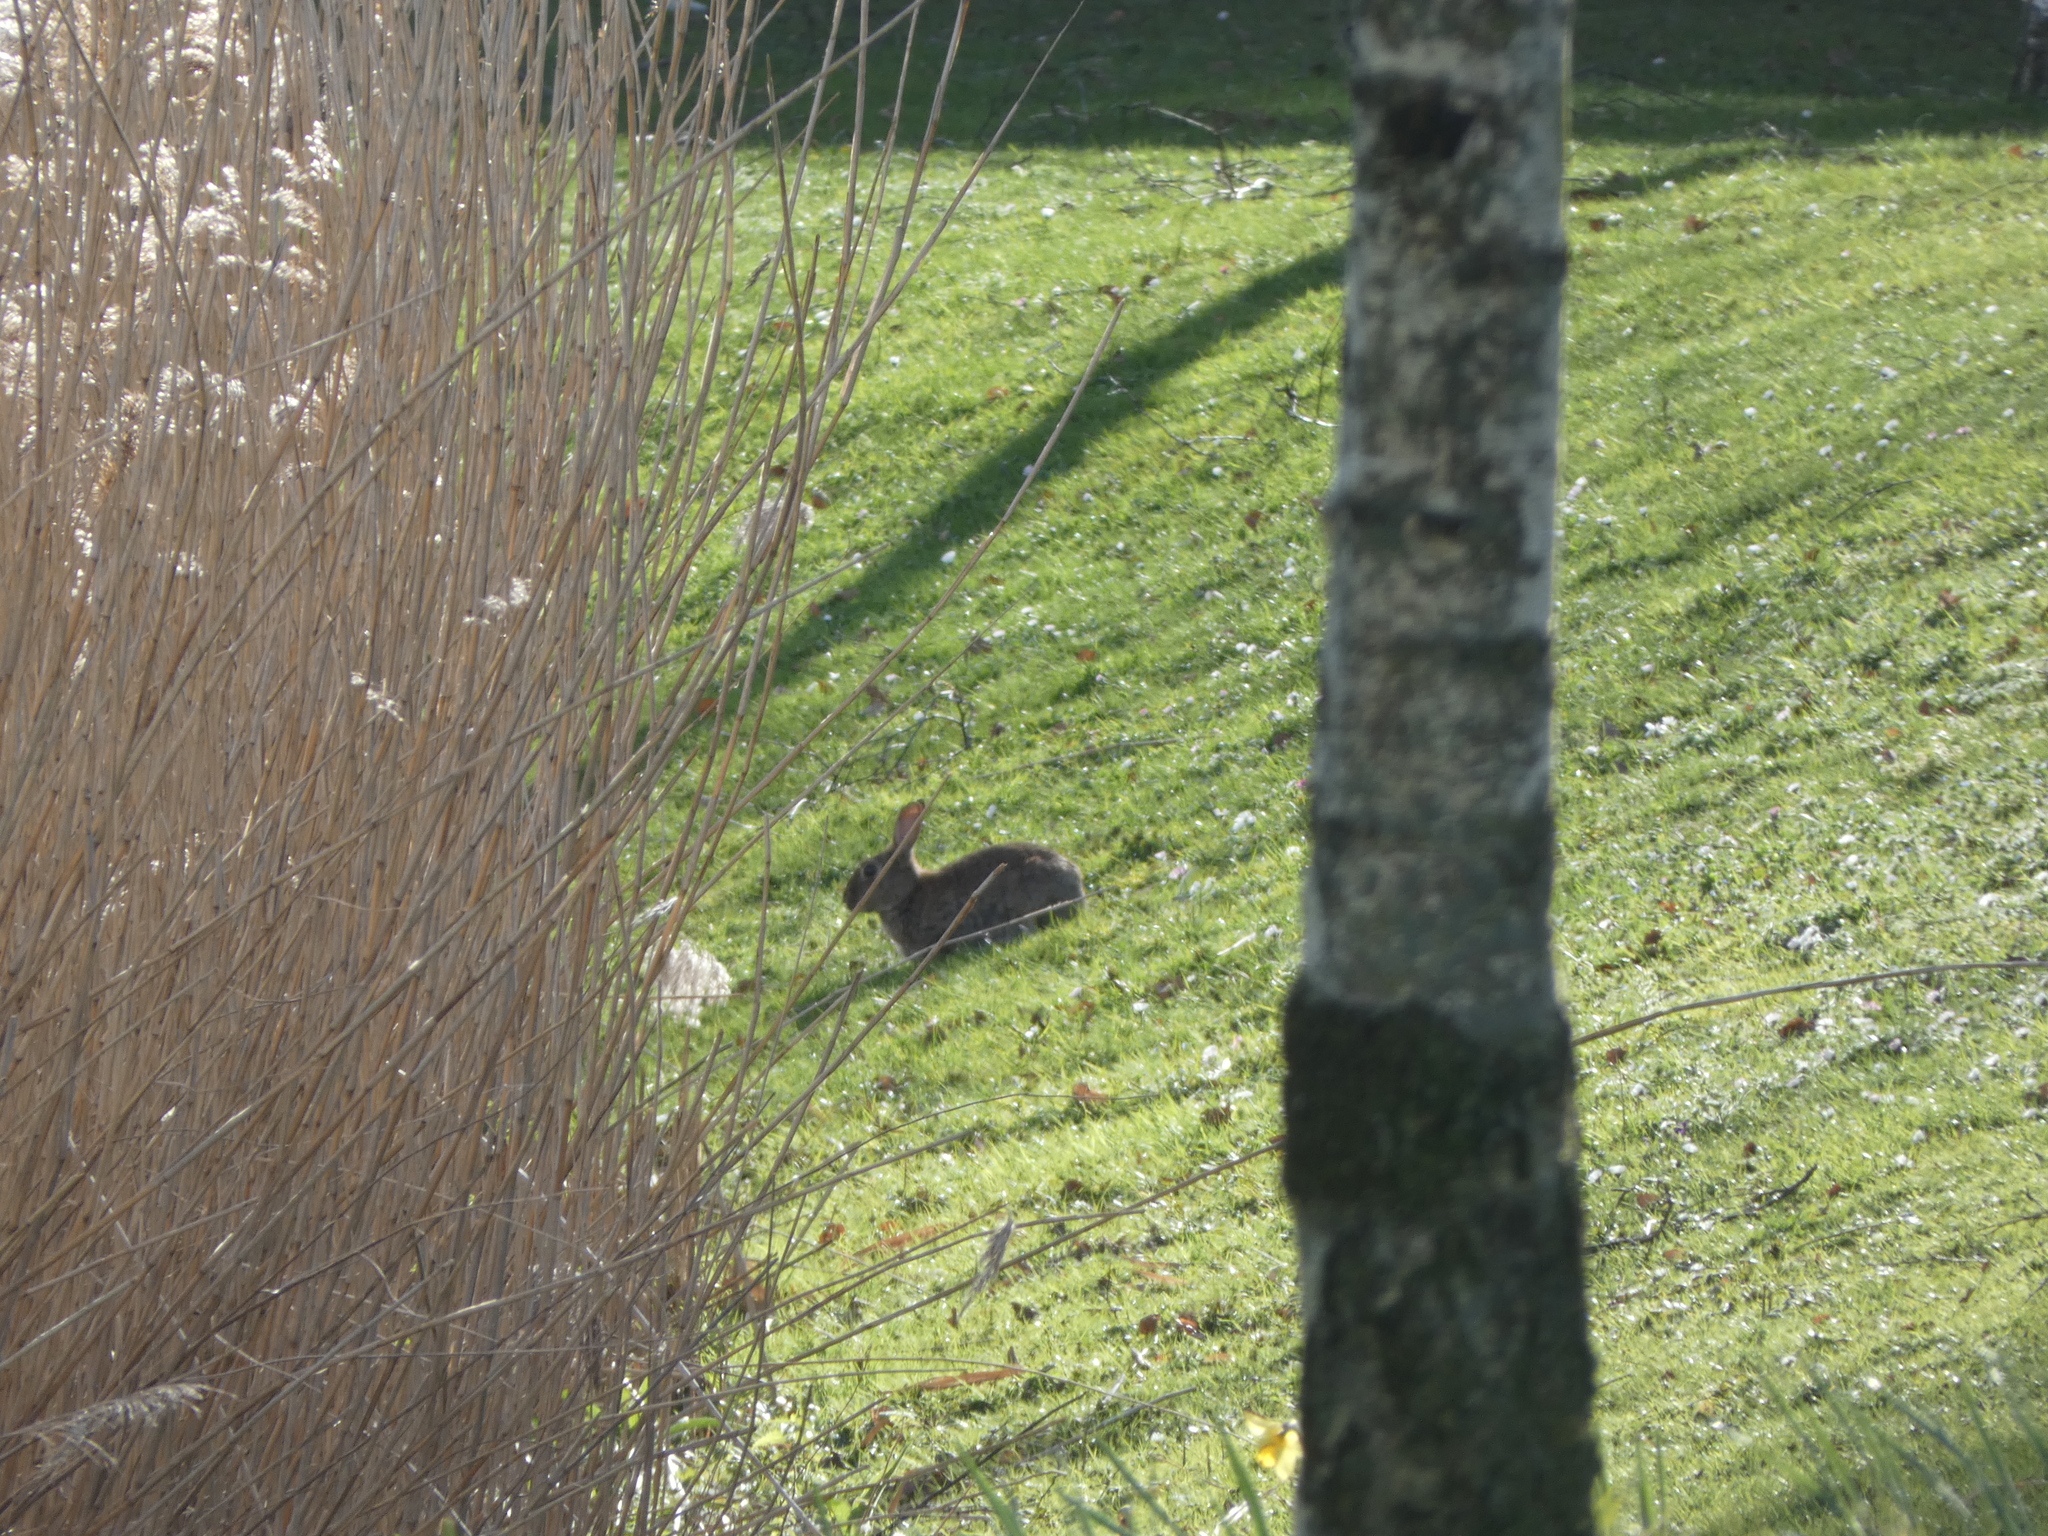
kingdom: Animalia
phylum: Chordata
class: Mammalia
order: Lagomorpha
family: Leporidae
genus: Oryctolagus
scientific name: Oryctolagus cuniculus
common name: European rabbit
